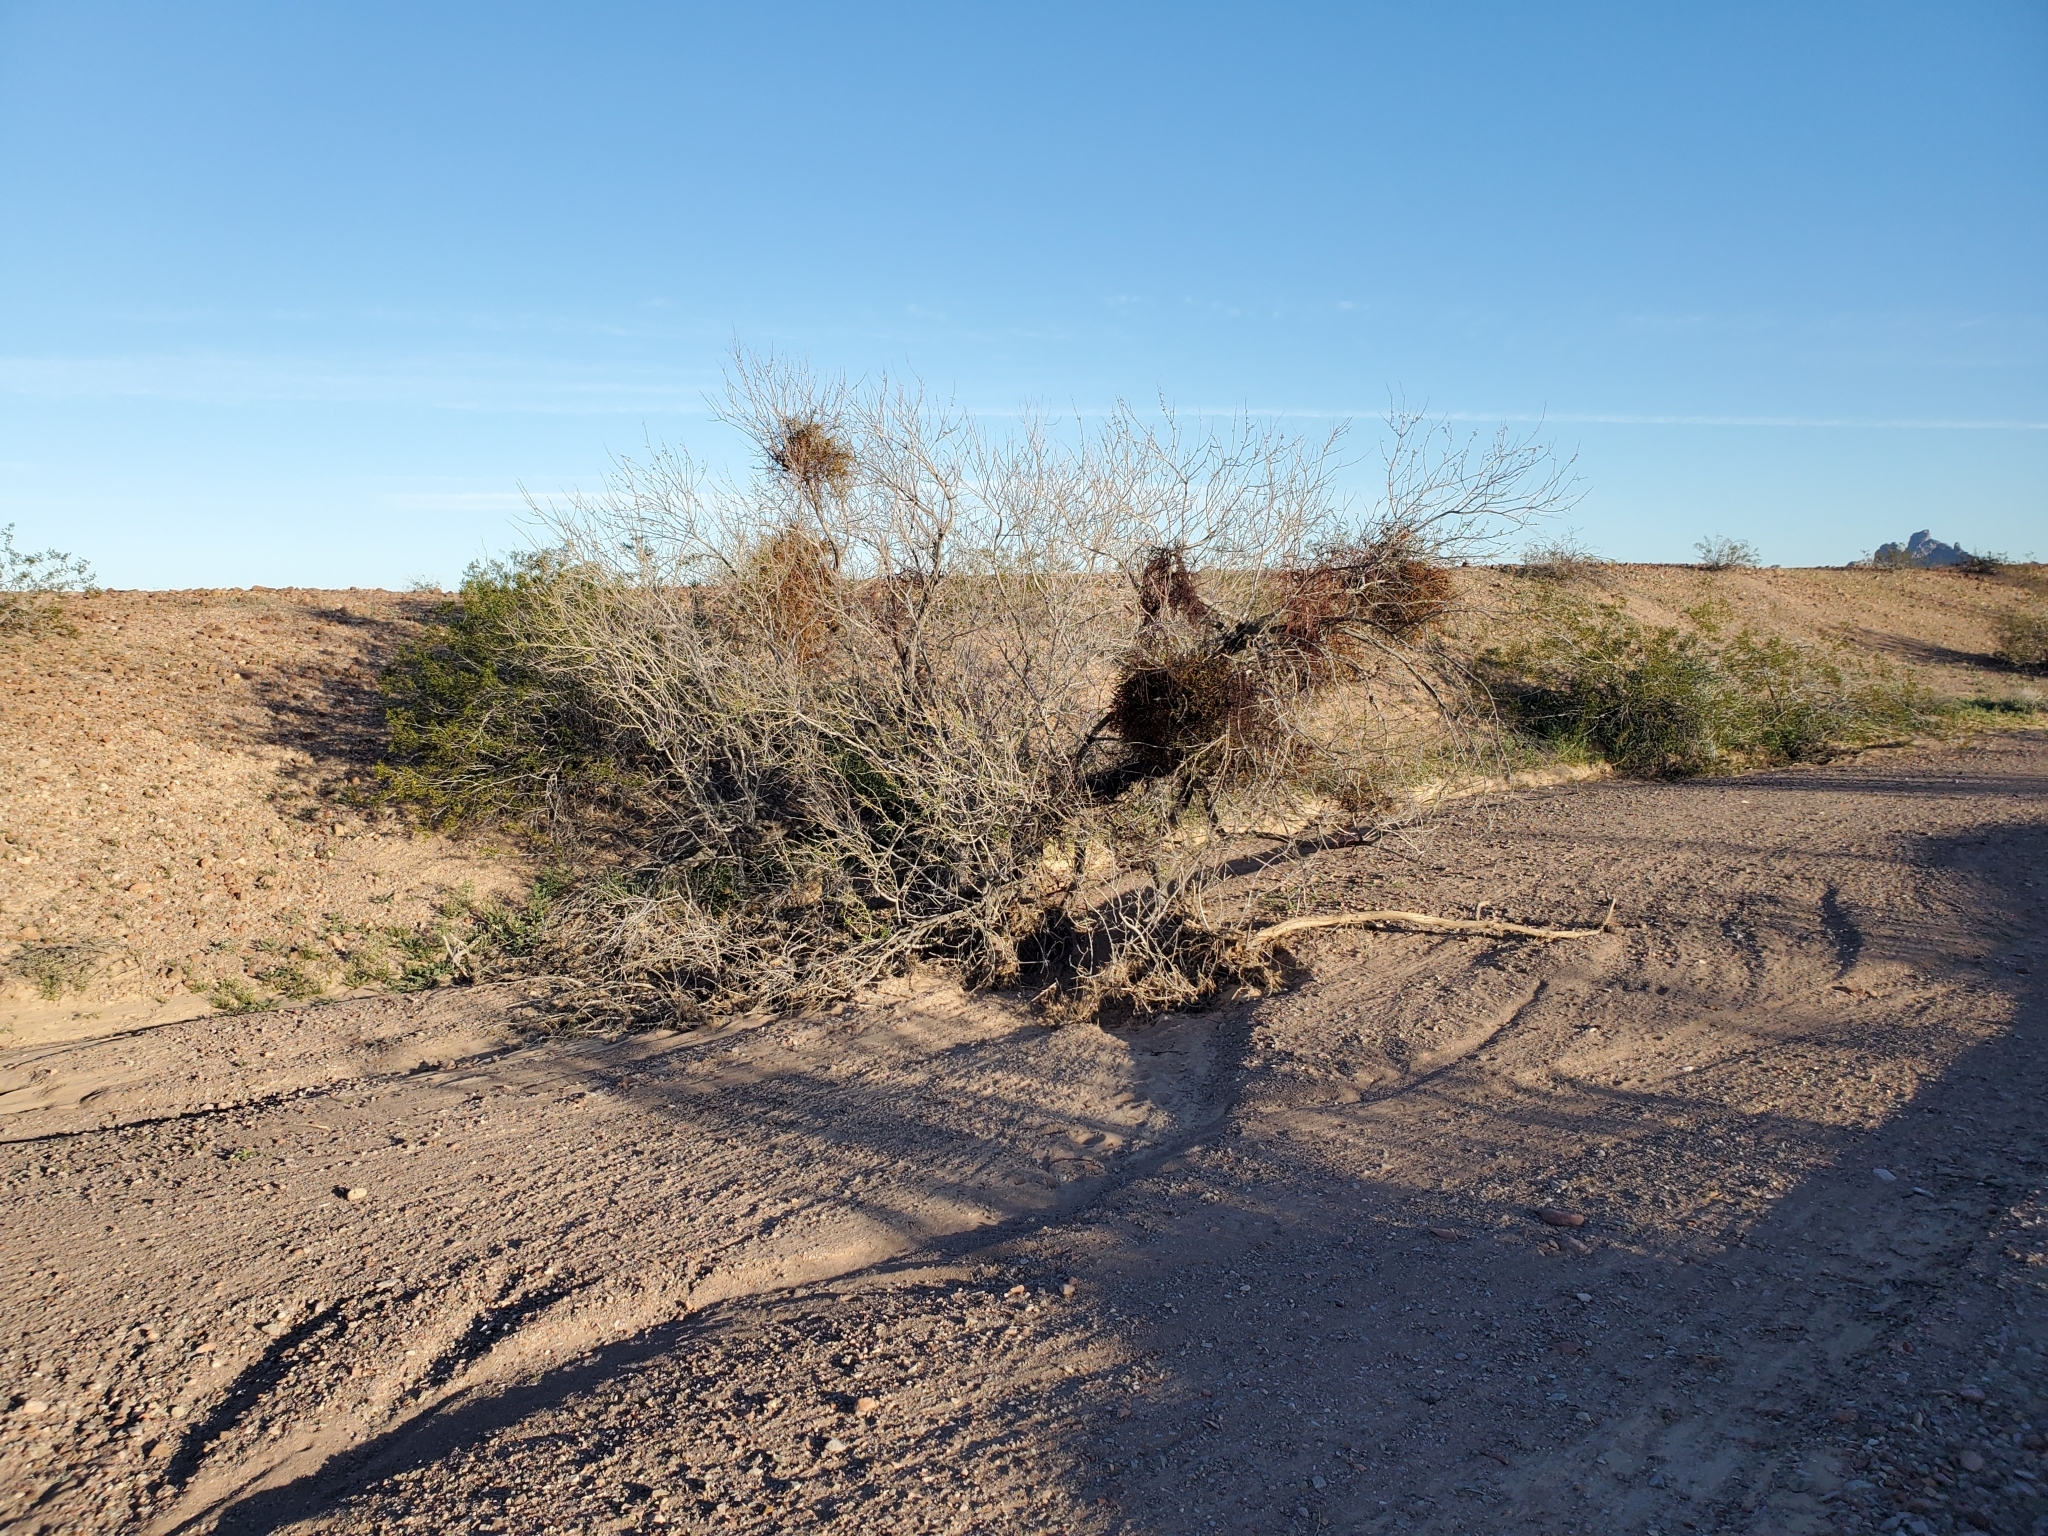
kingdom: Plantae
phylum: Tracheophyta
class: Magnoliopsida
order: Santalales
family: Viscaceae
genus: Phoradendron
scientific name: Phoradendron californicum
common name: Acacia mistletoe
